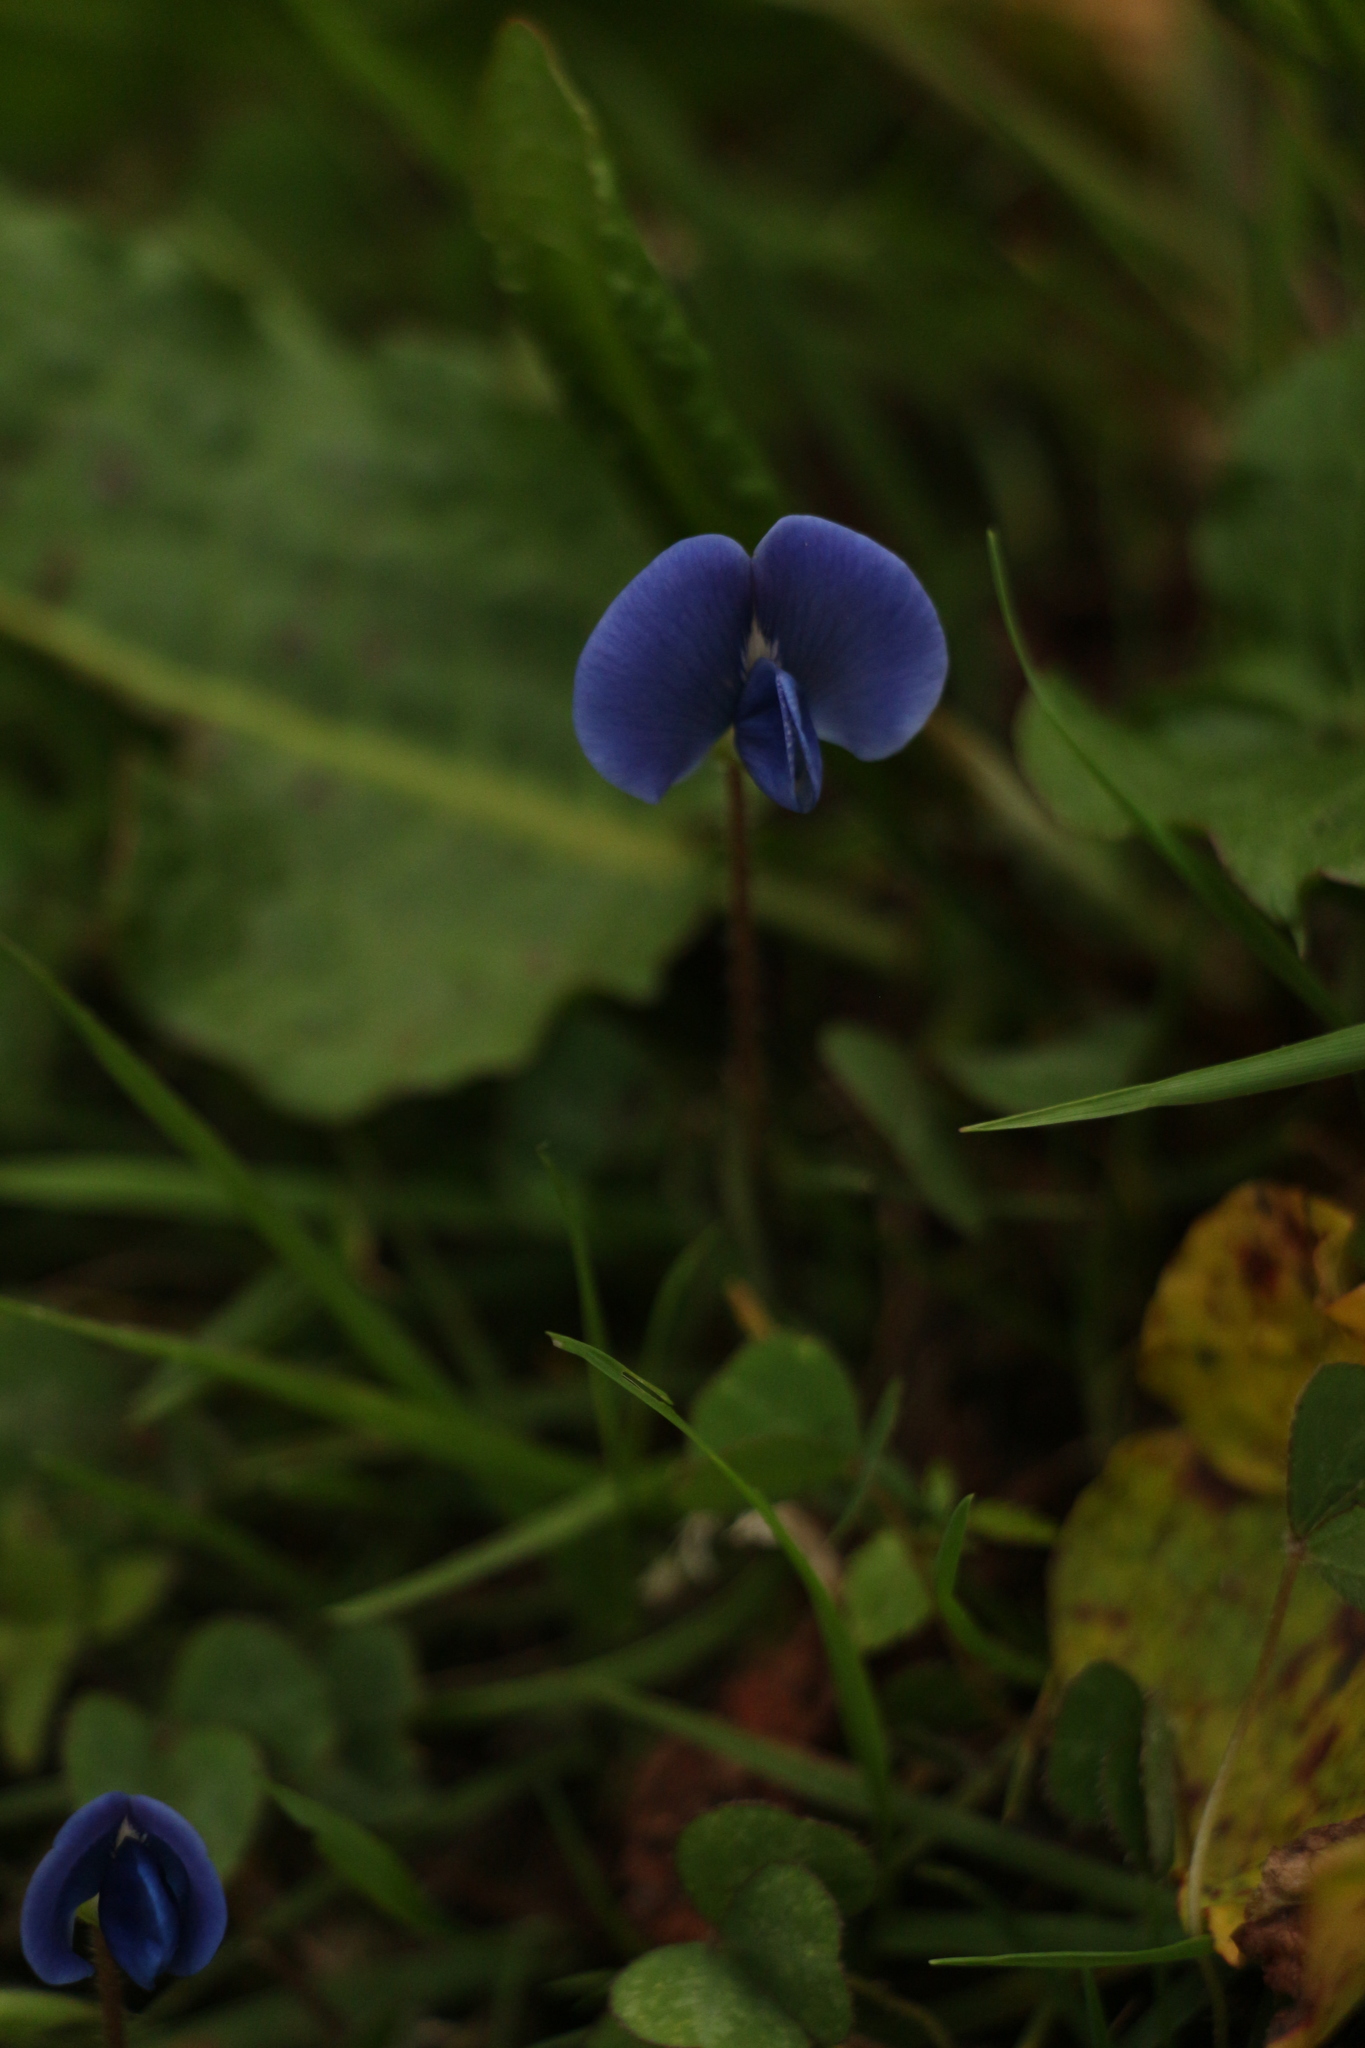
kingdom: Plantae
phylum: Tracheophyta
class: Magnoliopsida
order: Fabales
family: Fabaceae
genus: Parochetus
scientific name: Parochetus communis
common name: Blue oxalis
